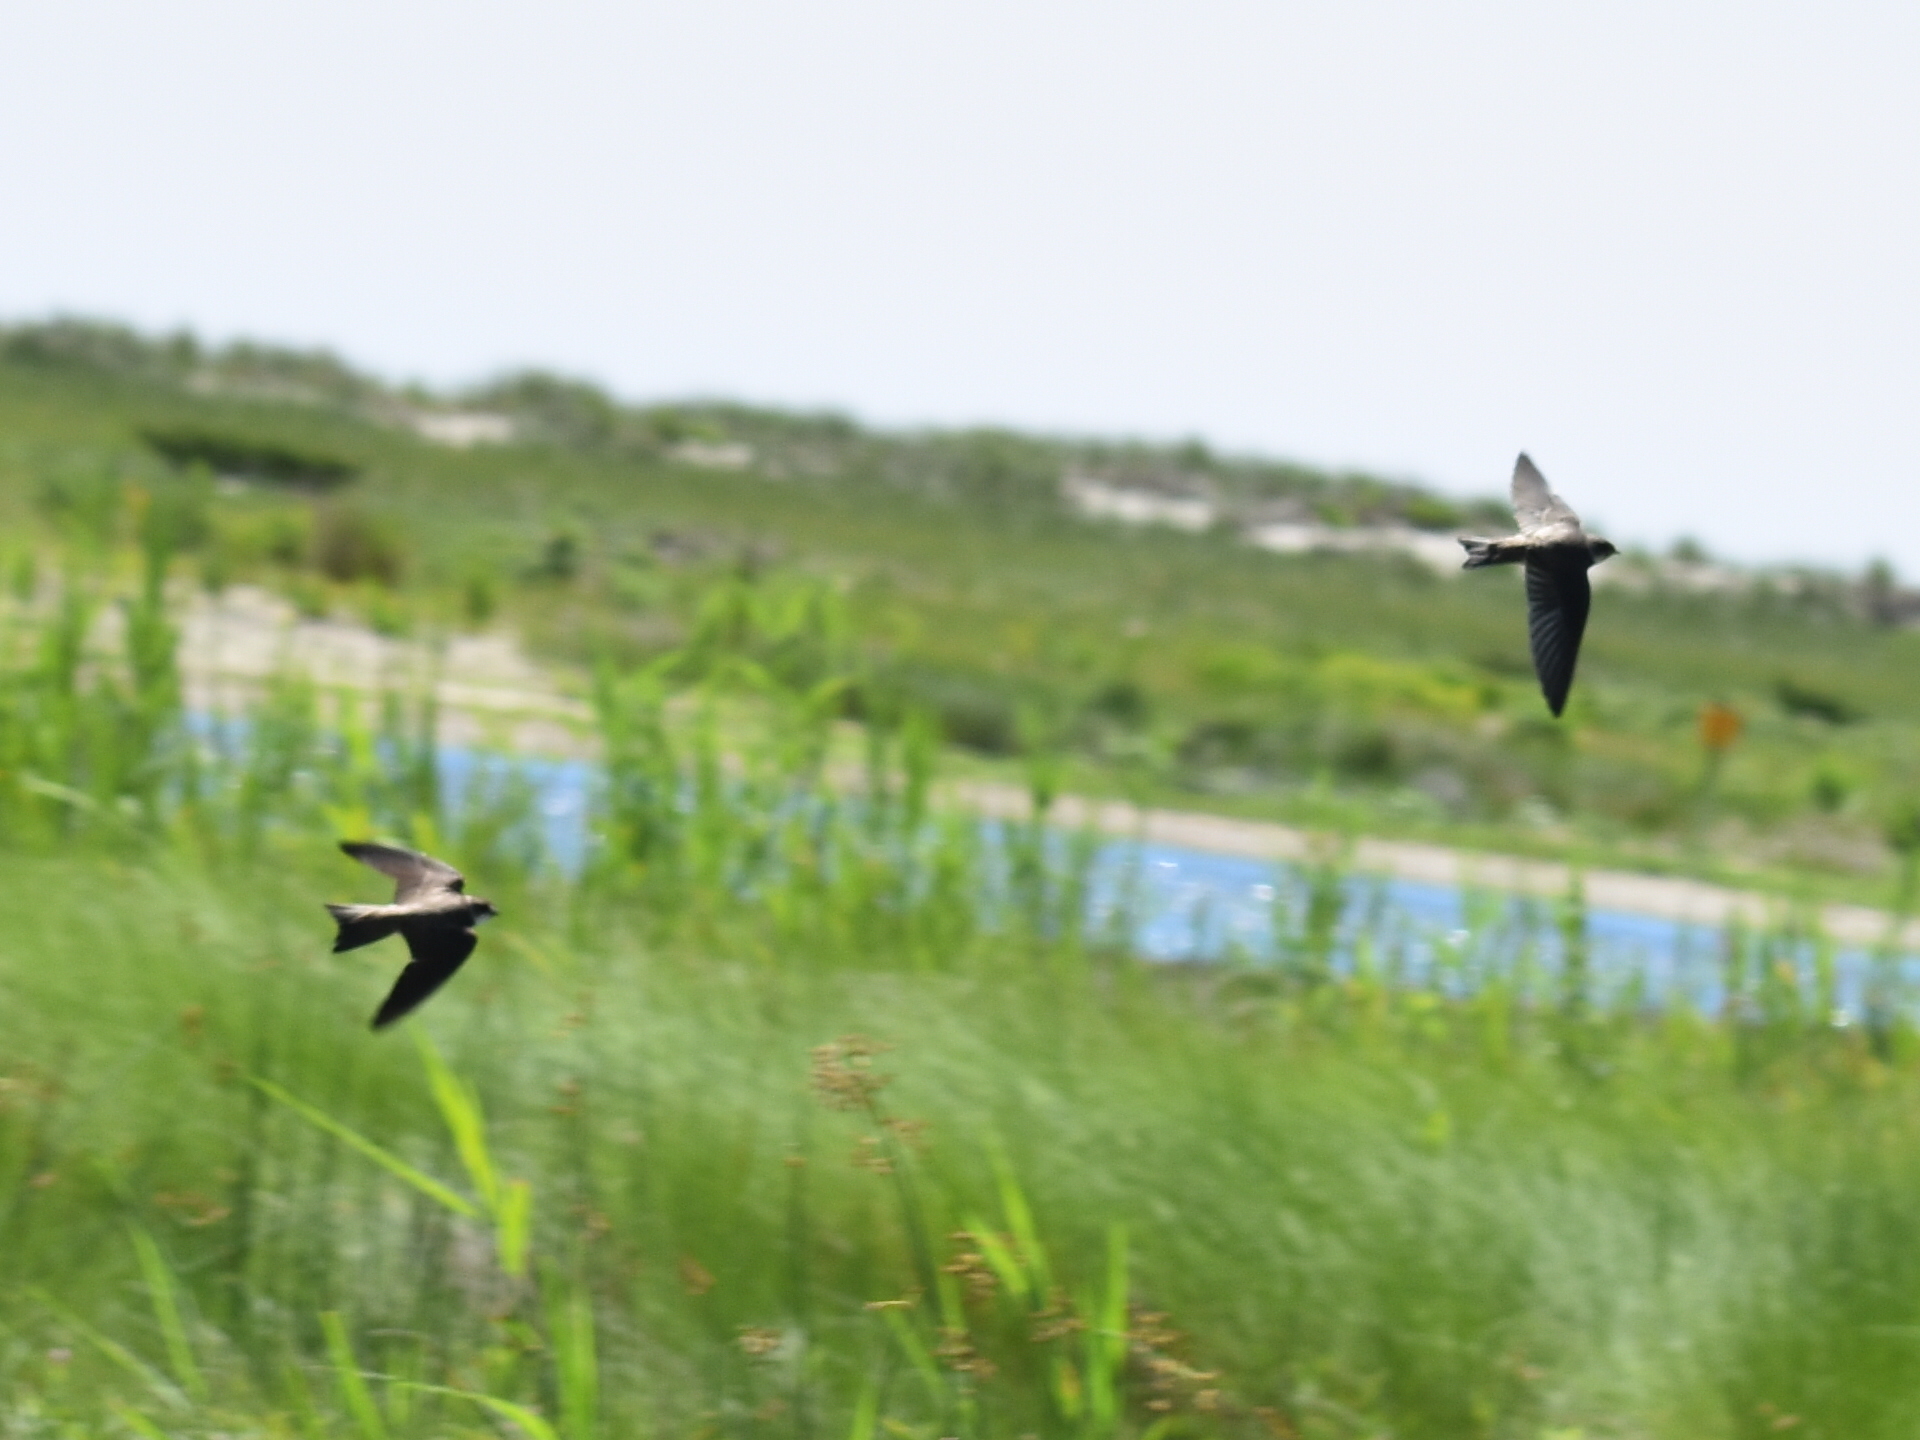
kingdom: Animalia
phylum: Chordata
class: Aves
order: Passeriformes
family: Hirundinidae
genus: Riparia
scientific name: Riparia riparia
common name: Sand martin
